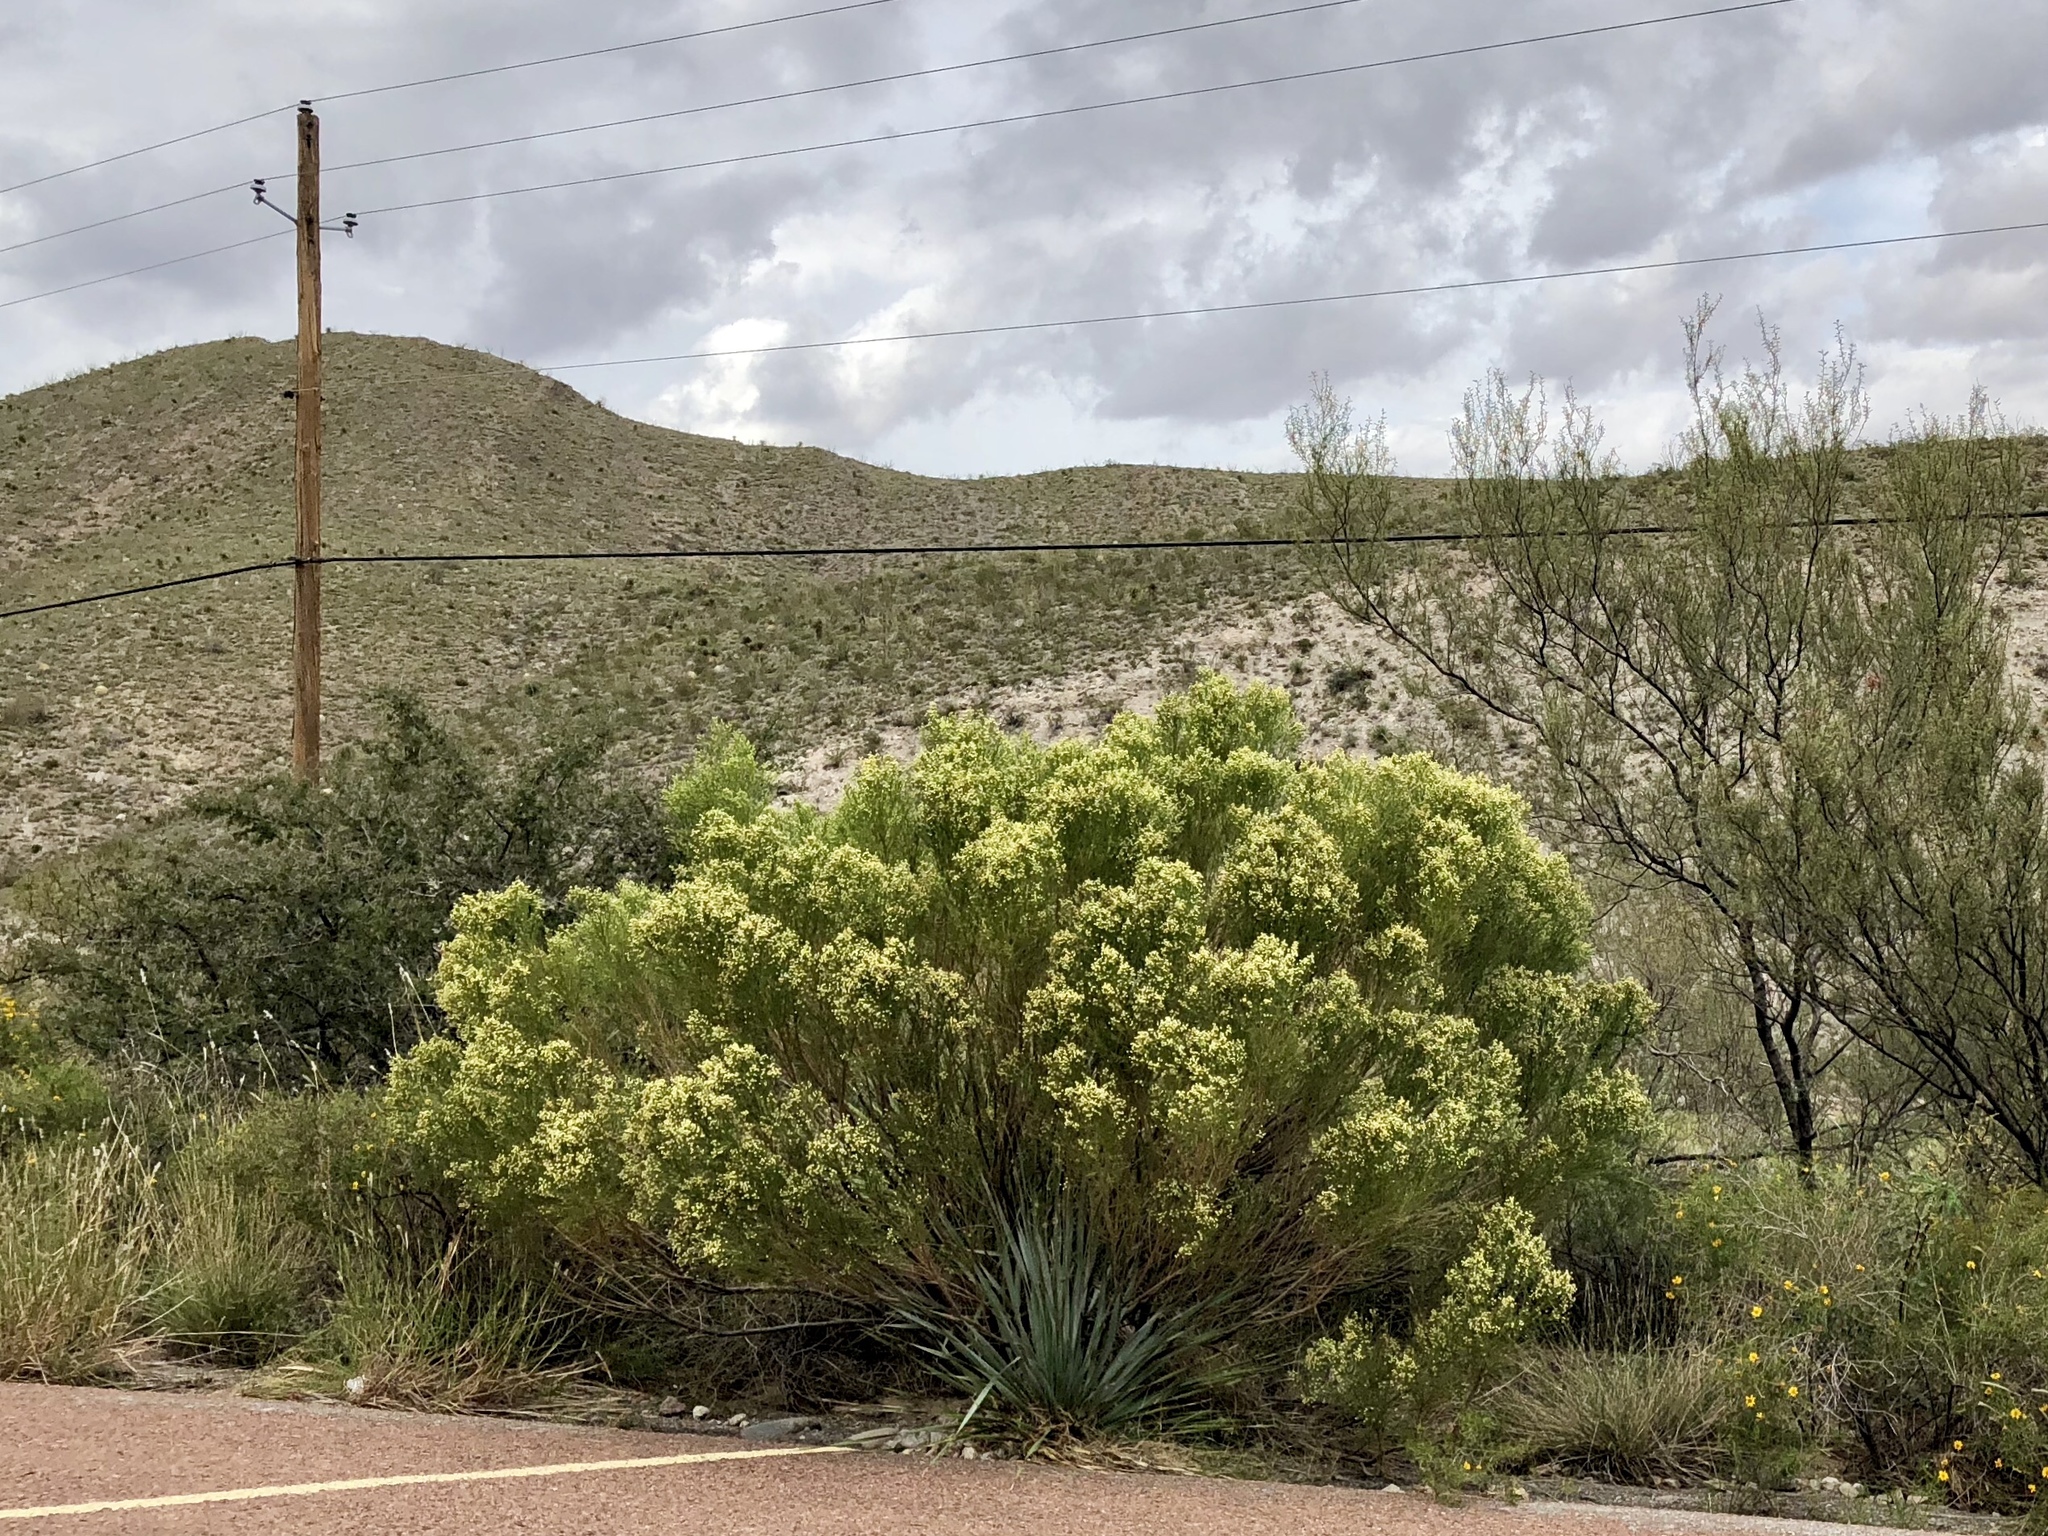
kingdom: Plantae
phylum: Tracheophyta
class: Magnoliopsida
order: Asterales
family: Asteraceae
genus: Baccharis
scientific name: Baccharis sarothroides
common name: Desert-broom
